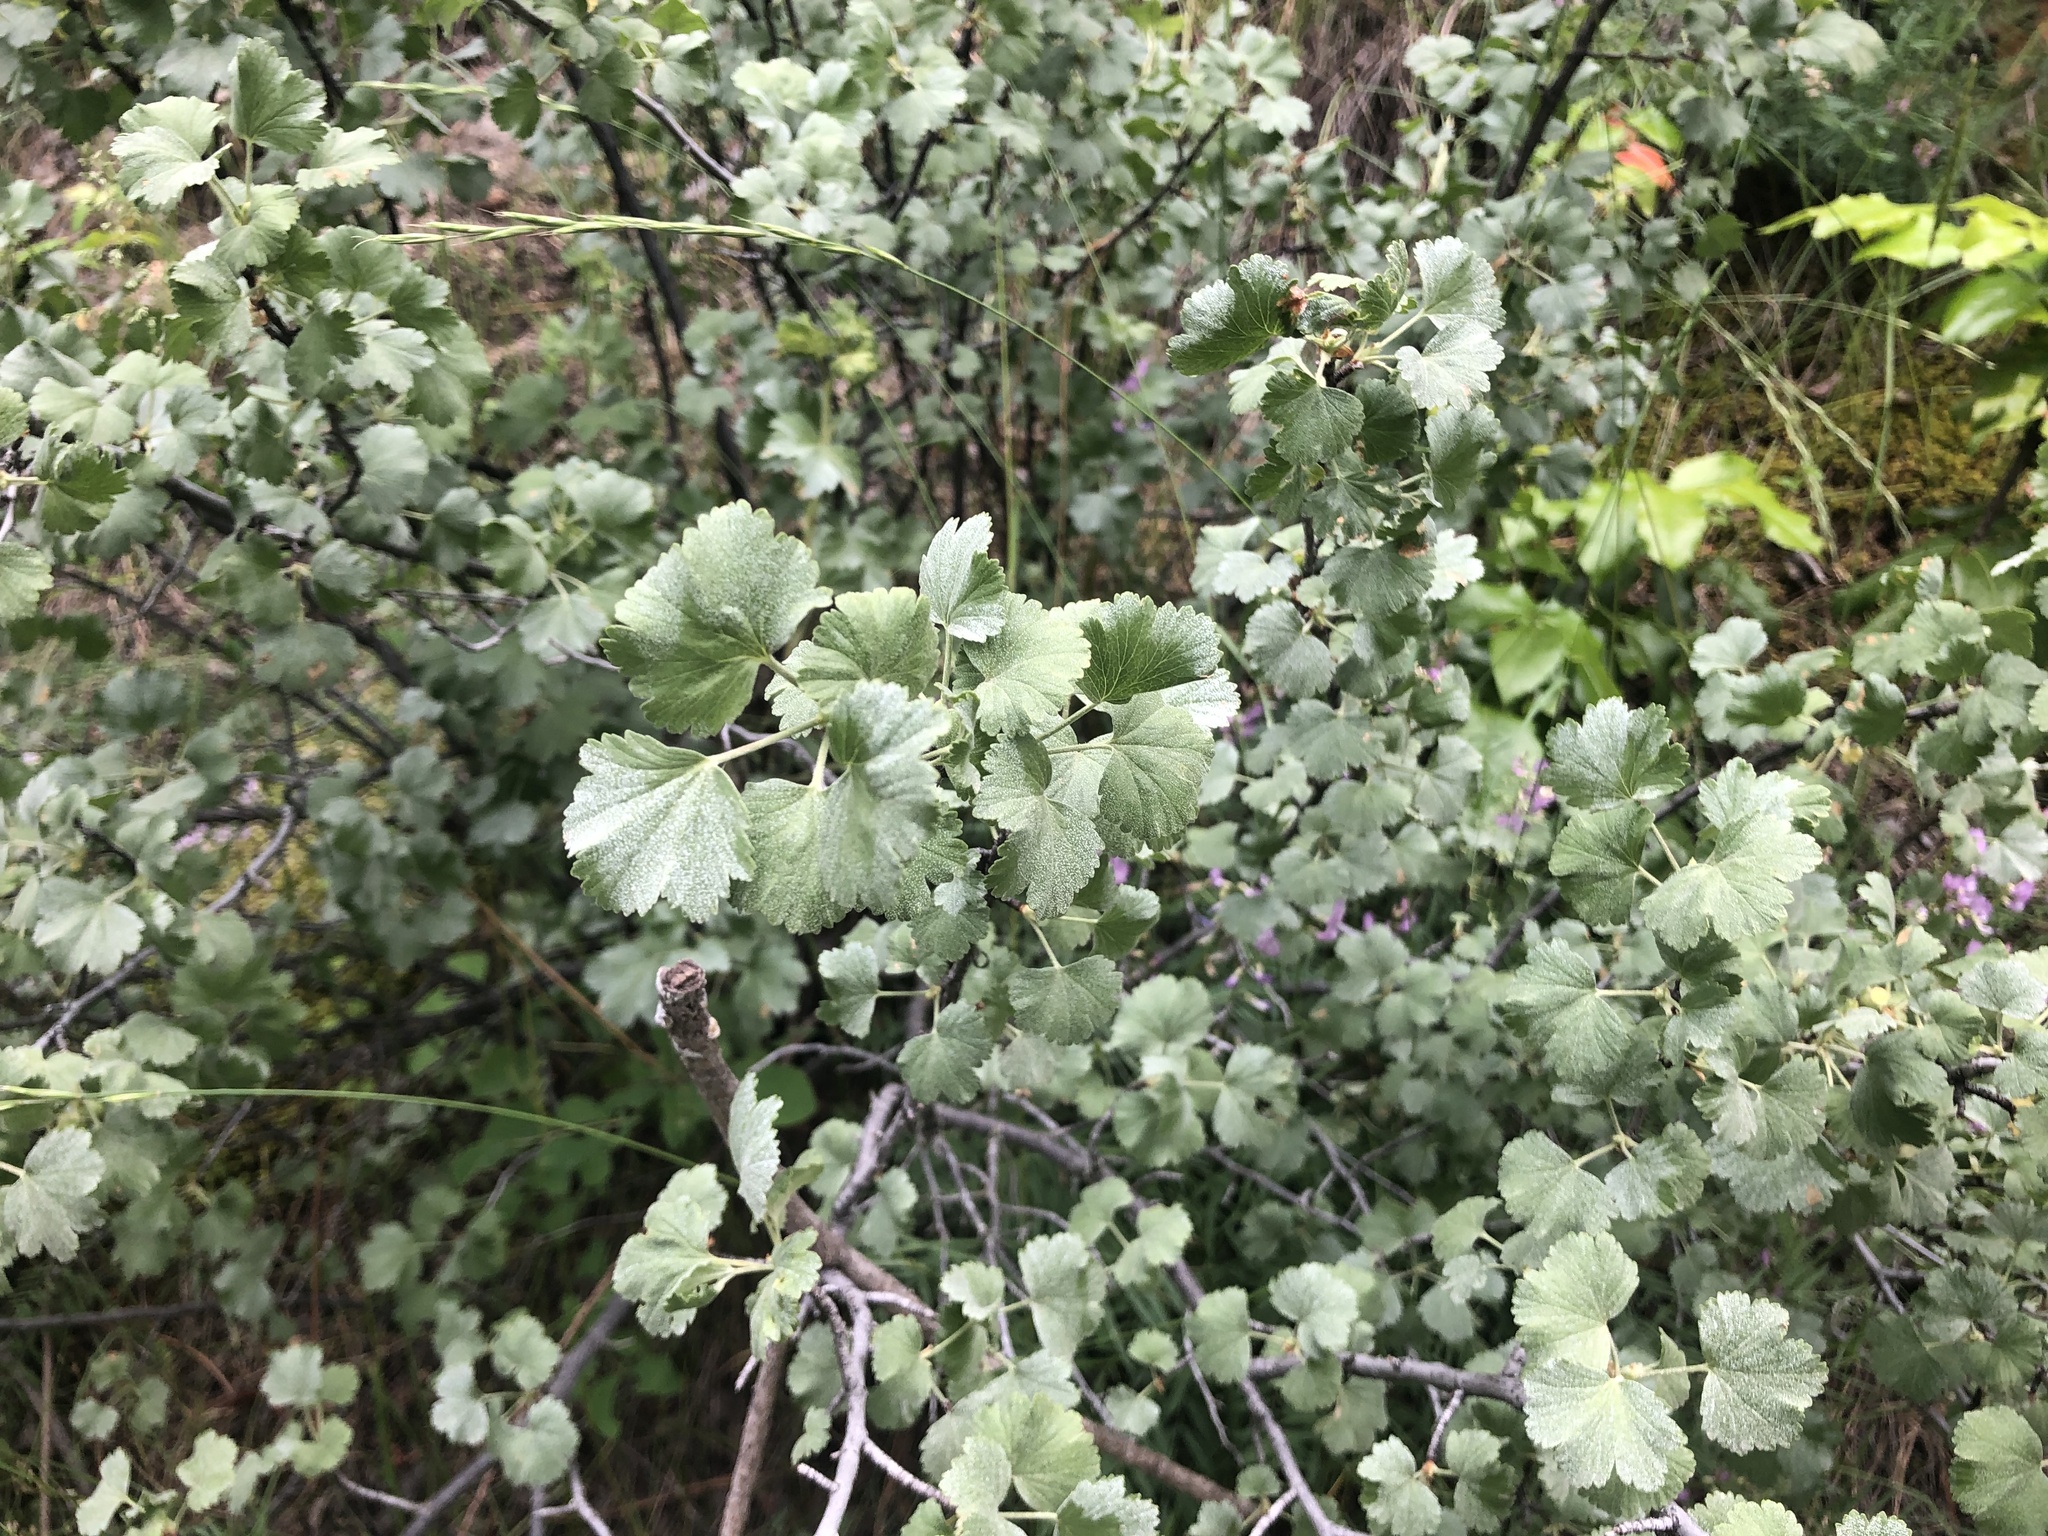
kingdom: Plantae
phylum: Tracheophyta
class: Magnoliopsida
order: Saxifragales
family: Grossulariaceae
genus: Ribes
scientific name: Ribes cereum
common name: Wax currant
